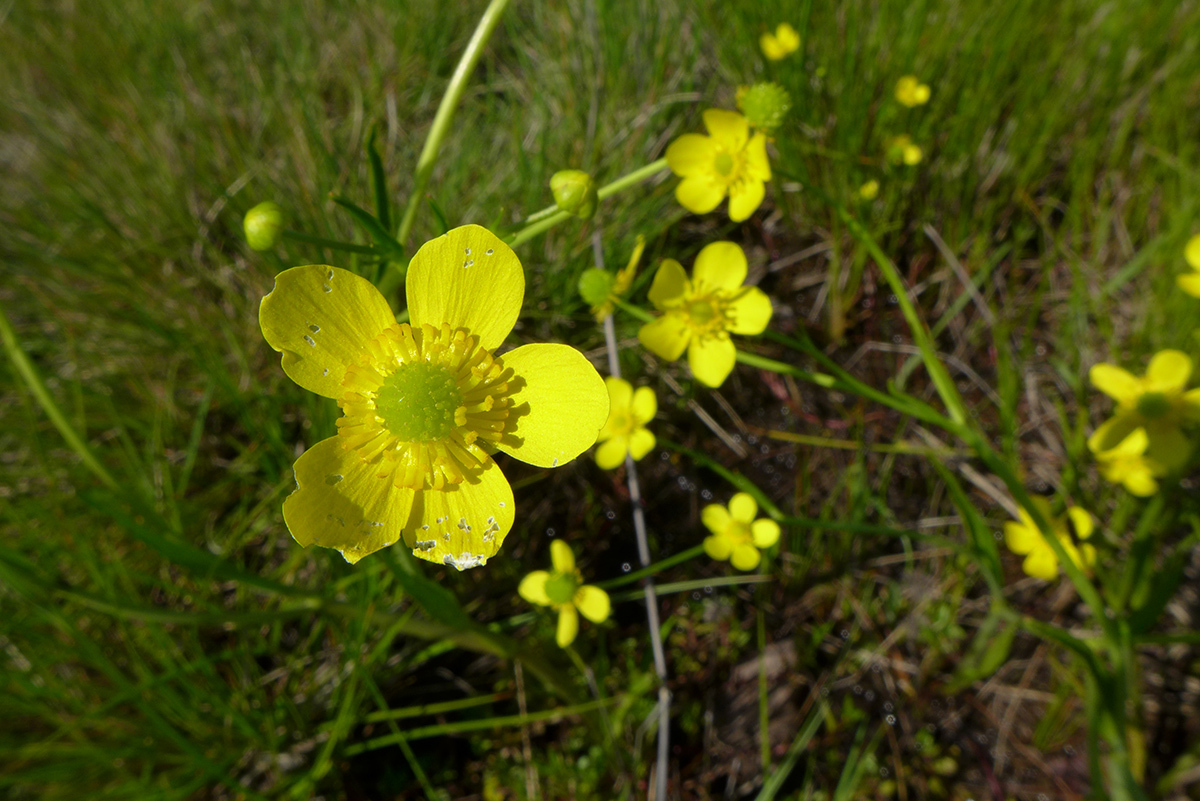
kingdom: Plantae
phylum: Tracheophyta
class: Magnoliopsida
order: Ranunculales
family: Ranunculaceae
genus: Ranunculus
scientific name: Ranunculus alismifolius
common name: Plantain-leaved buttercup
